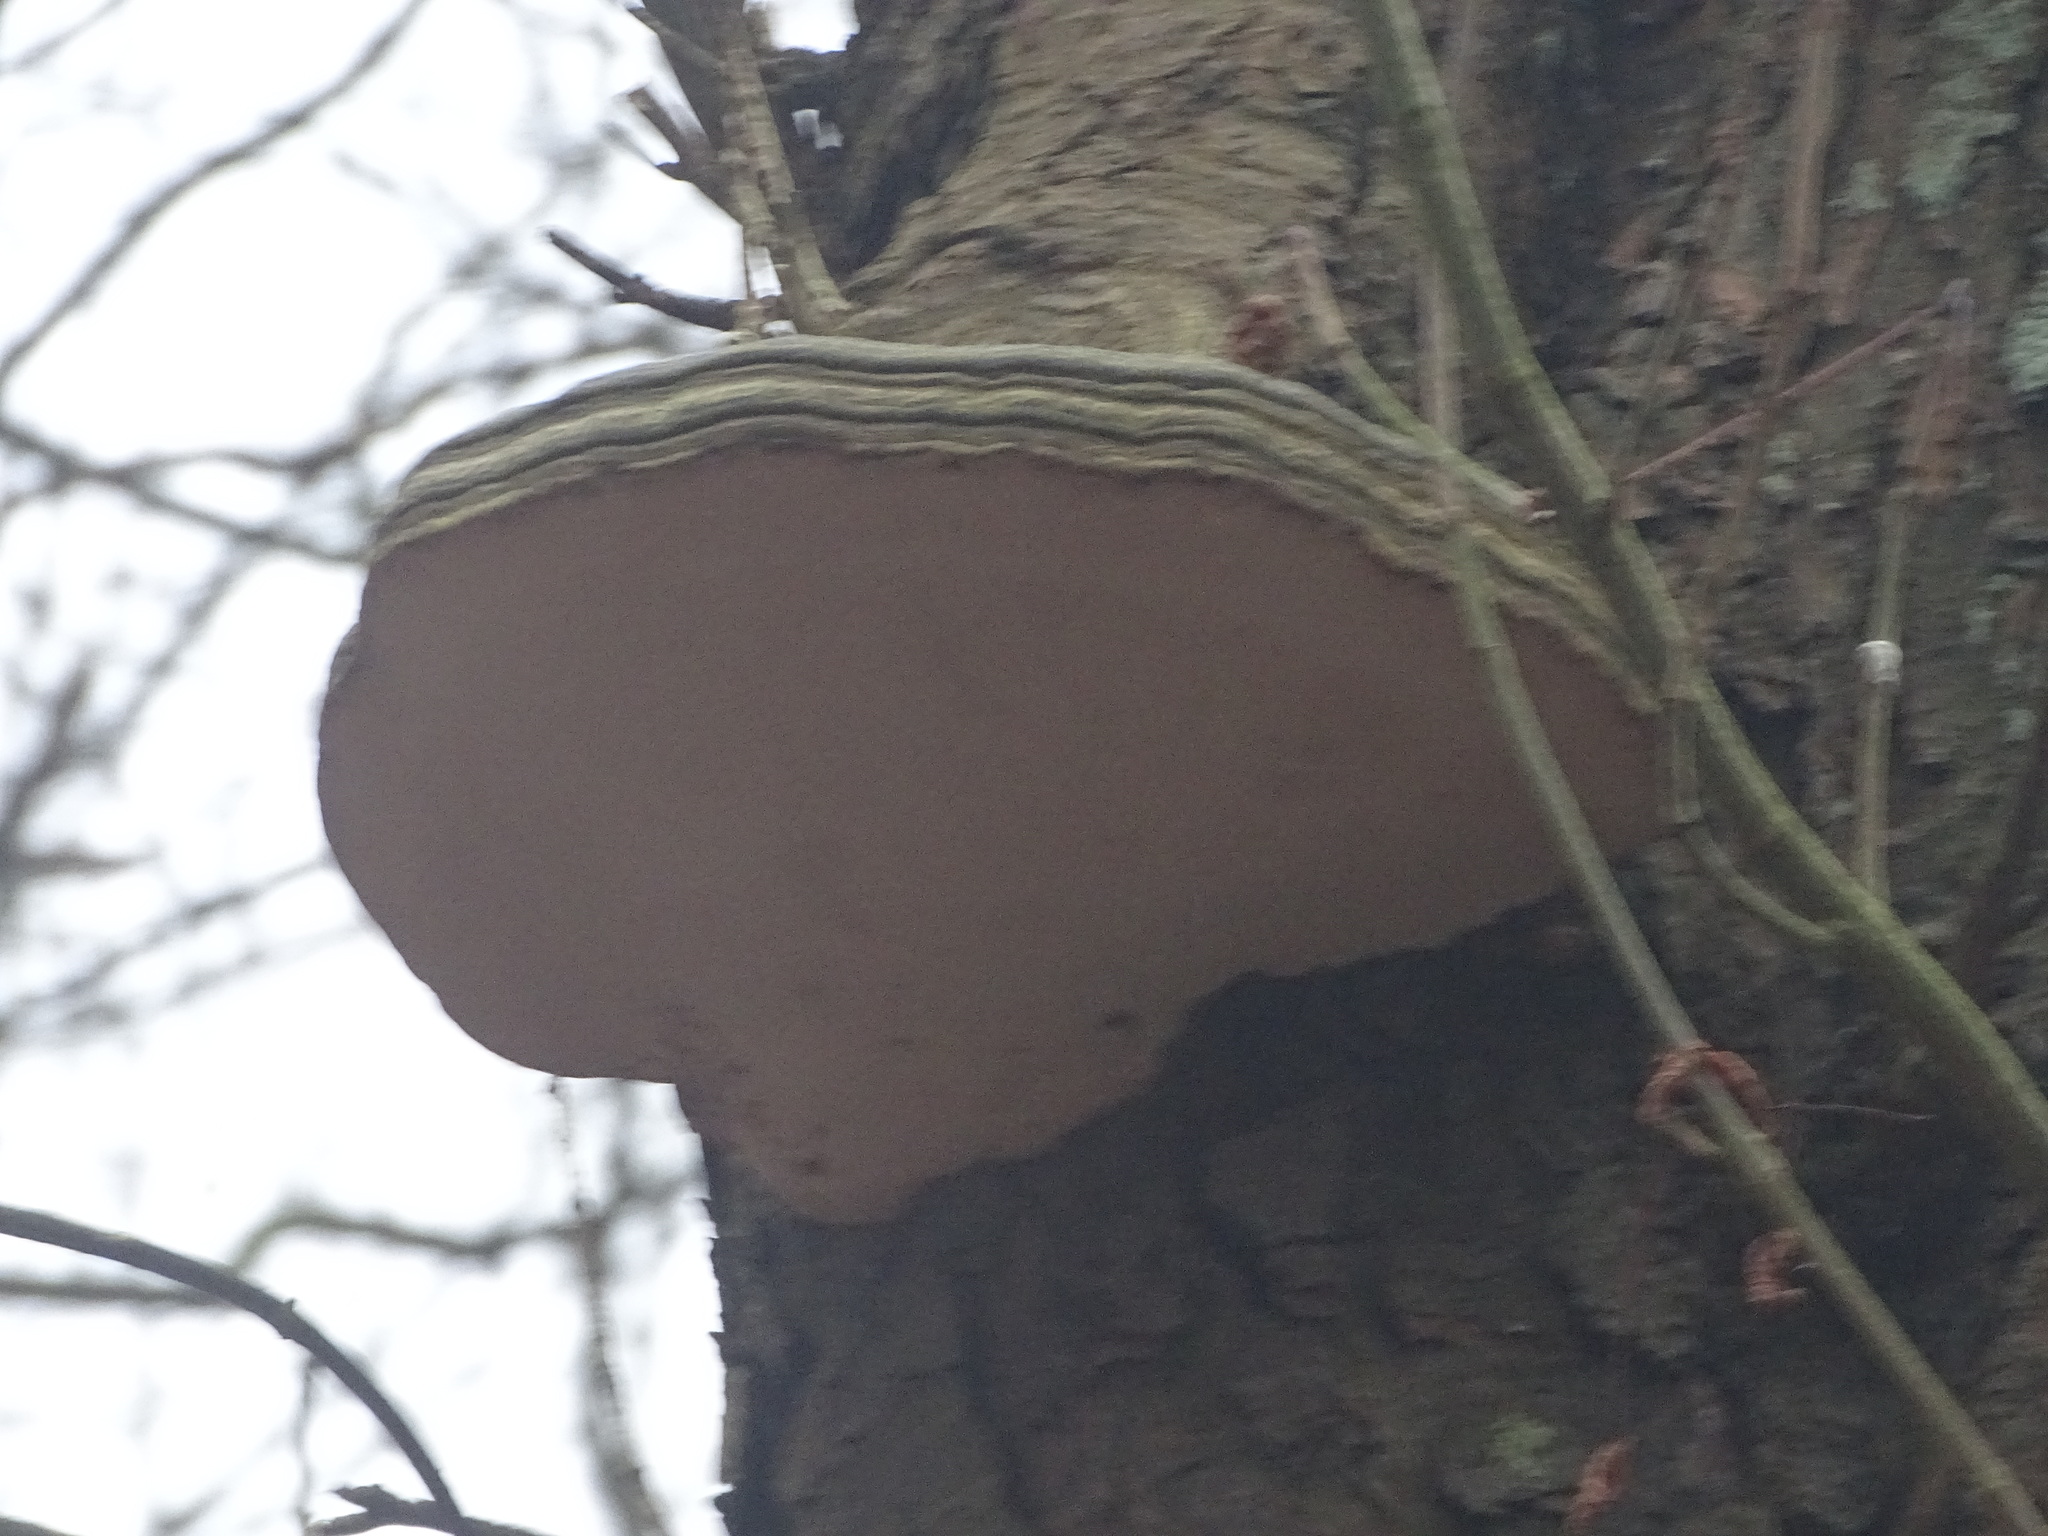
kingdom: Fungi
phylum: Basidiomycota
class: Agaricomycetes
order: Polyporales
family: Polyporaceae
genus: Fomes
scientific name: Fomes fomentarius
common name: Hoof fungus
